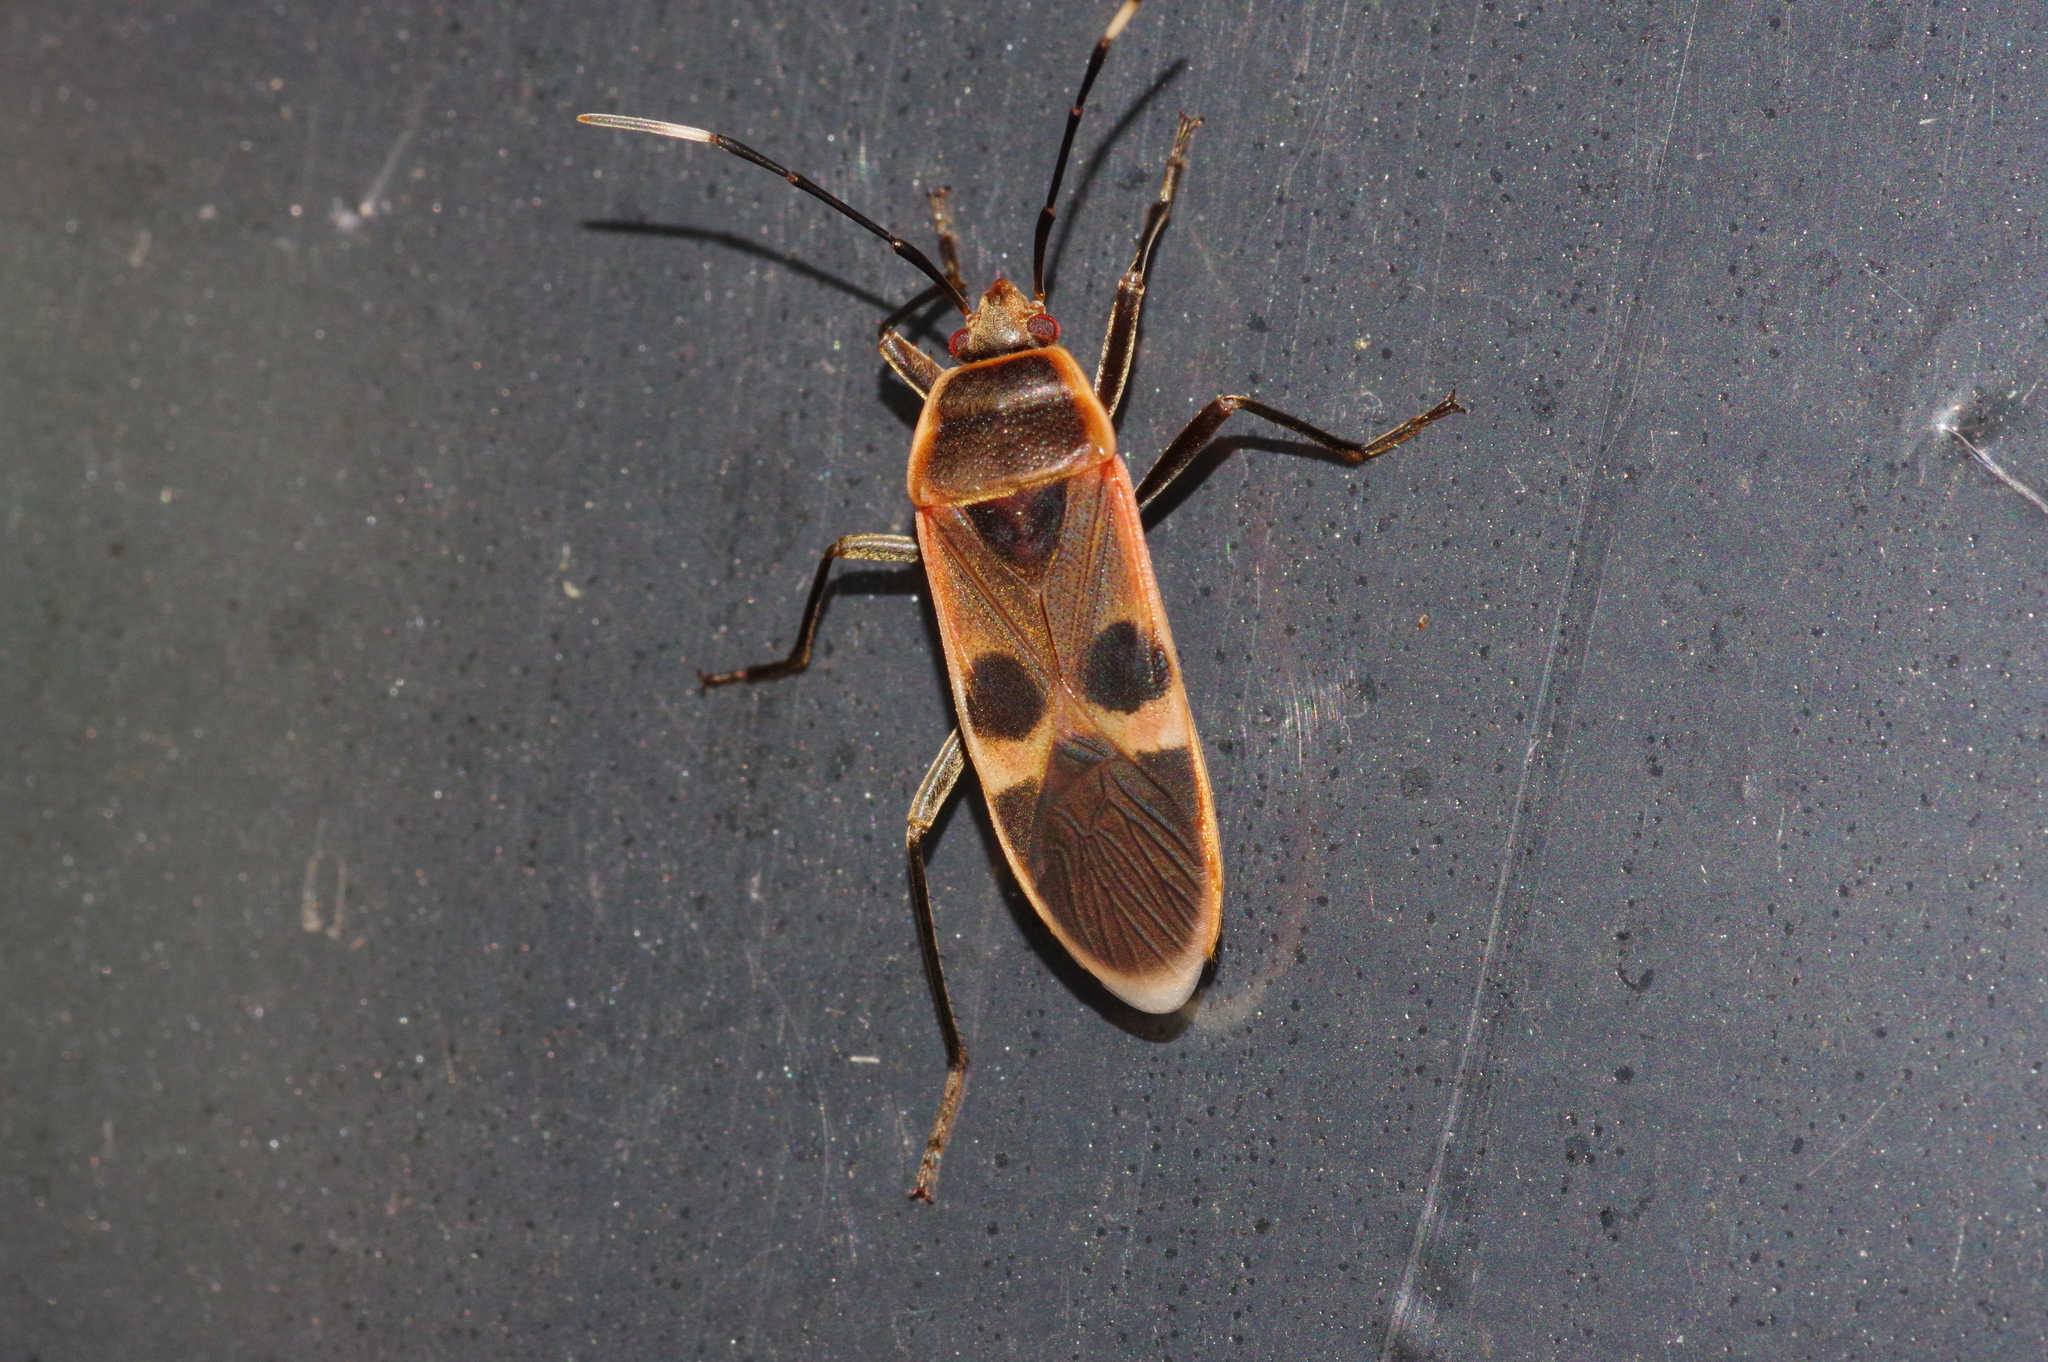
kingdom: Animalia
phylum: Arthropoda
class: Insecta
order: Hemiptera
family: Largidae
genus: Physopelta
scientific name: Physopelta gutta
